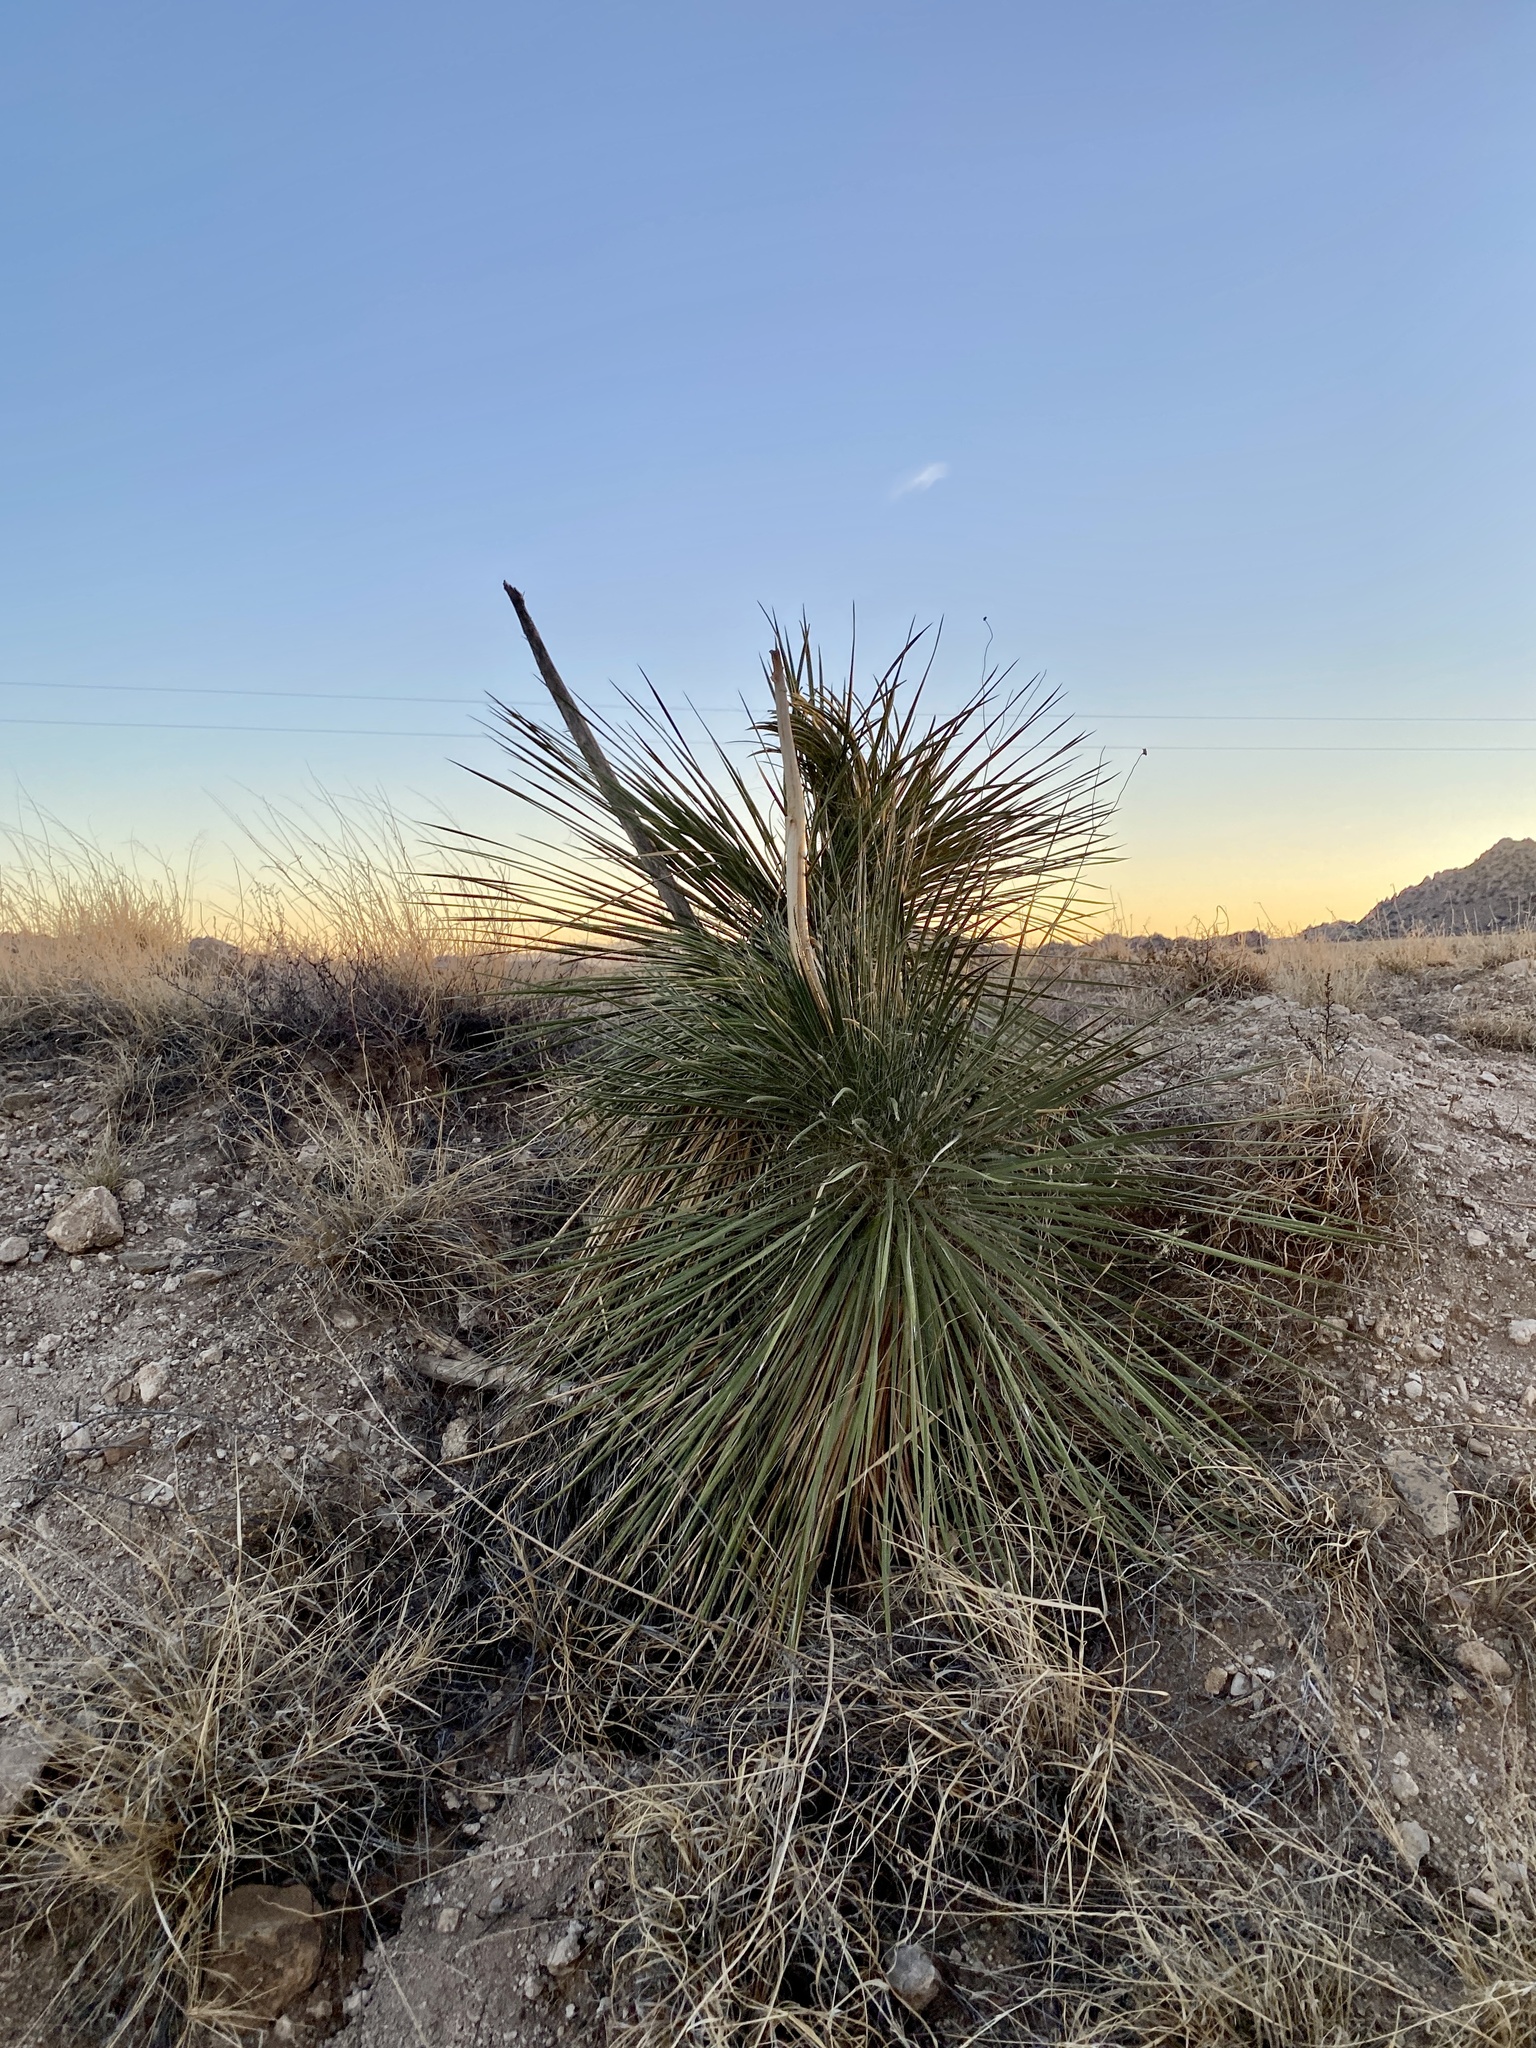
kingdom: Plantae
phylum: Tracheophyta
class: Liliopsida
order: Asparagales
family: Asparagaceae
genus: Yucca
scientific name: Yucca elata
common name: Palmella
